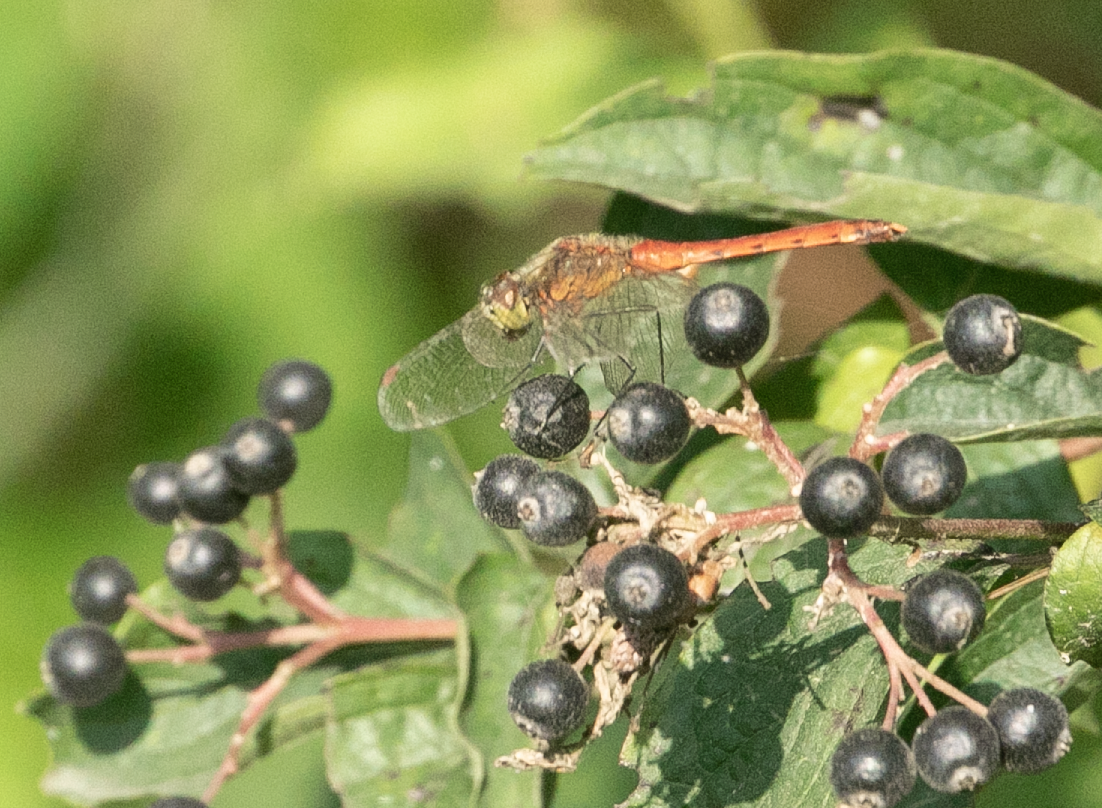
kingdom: Animalia
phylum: Arthropoda
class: Insecta
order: Odonata
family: Libellulidae
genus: Sympetrum
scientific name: Sympetrum depressiusculum
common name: Spotted darter
